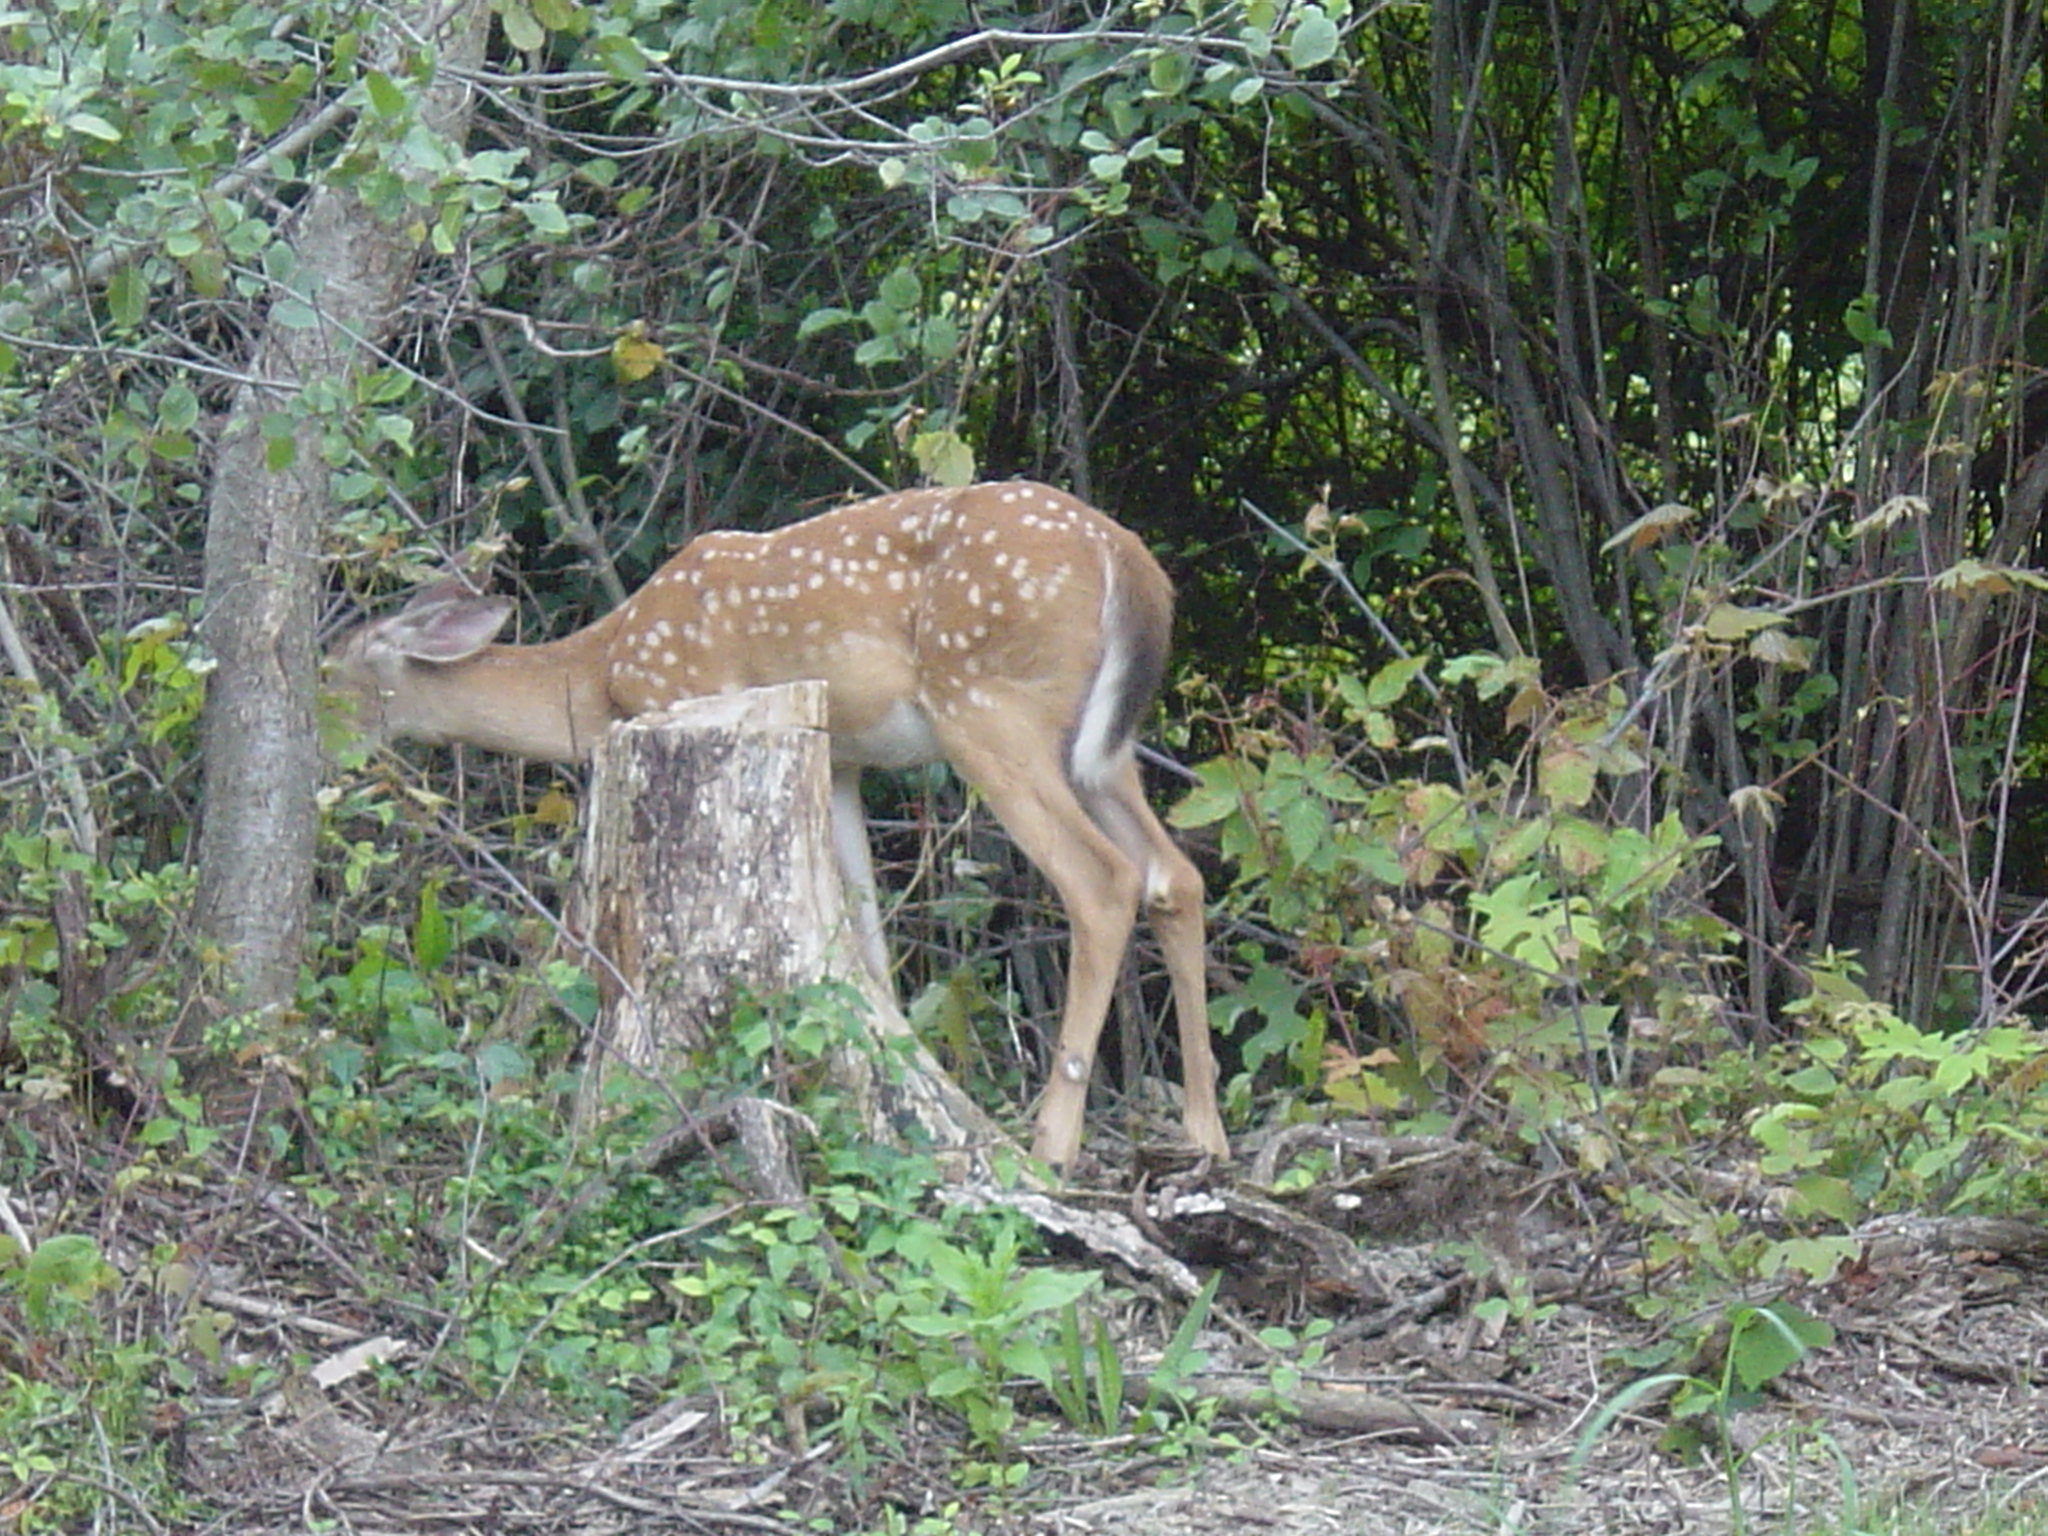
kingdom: Animalia
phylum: Chordata
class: Mammalia
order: Artiodactyla
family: Cervidae
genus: Odocoileus
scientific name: Odocoileus virginianus
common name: White-tailed deer
